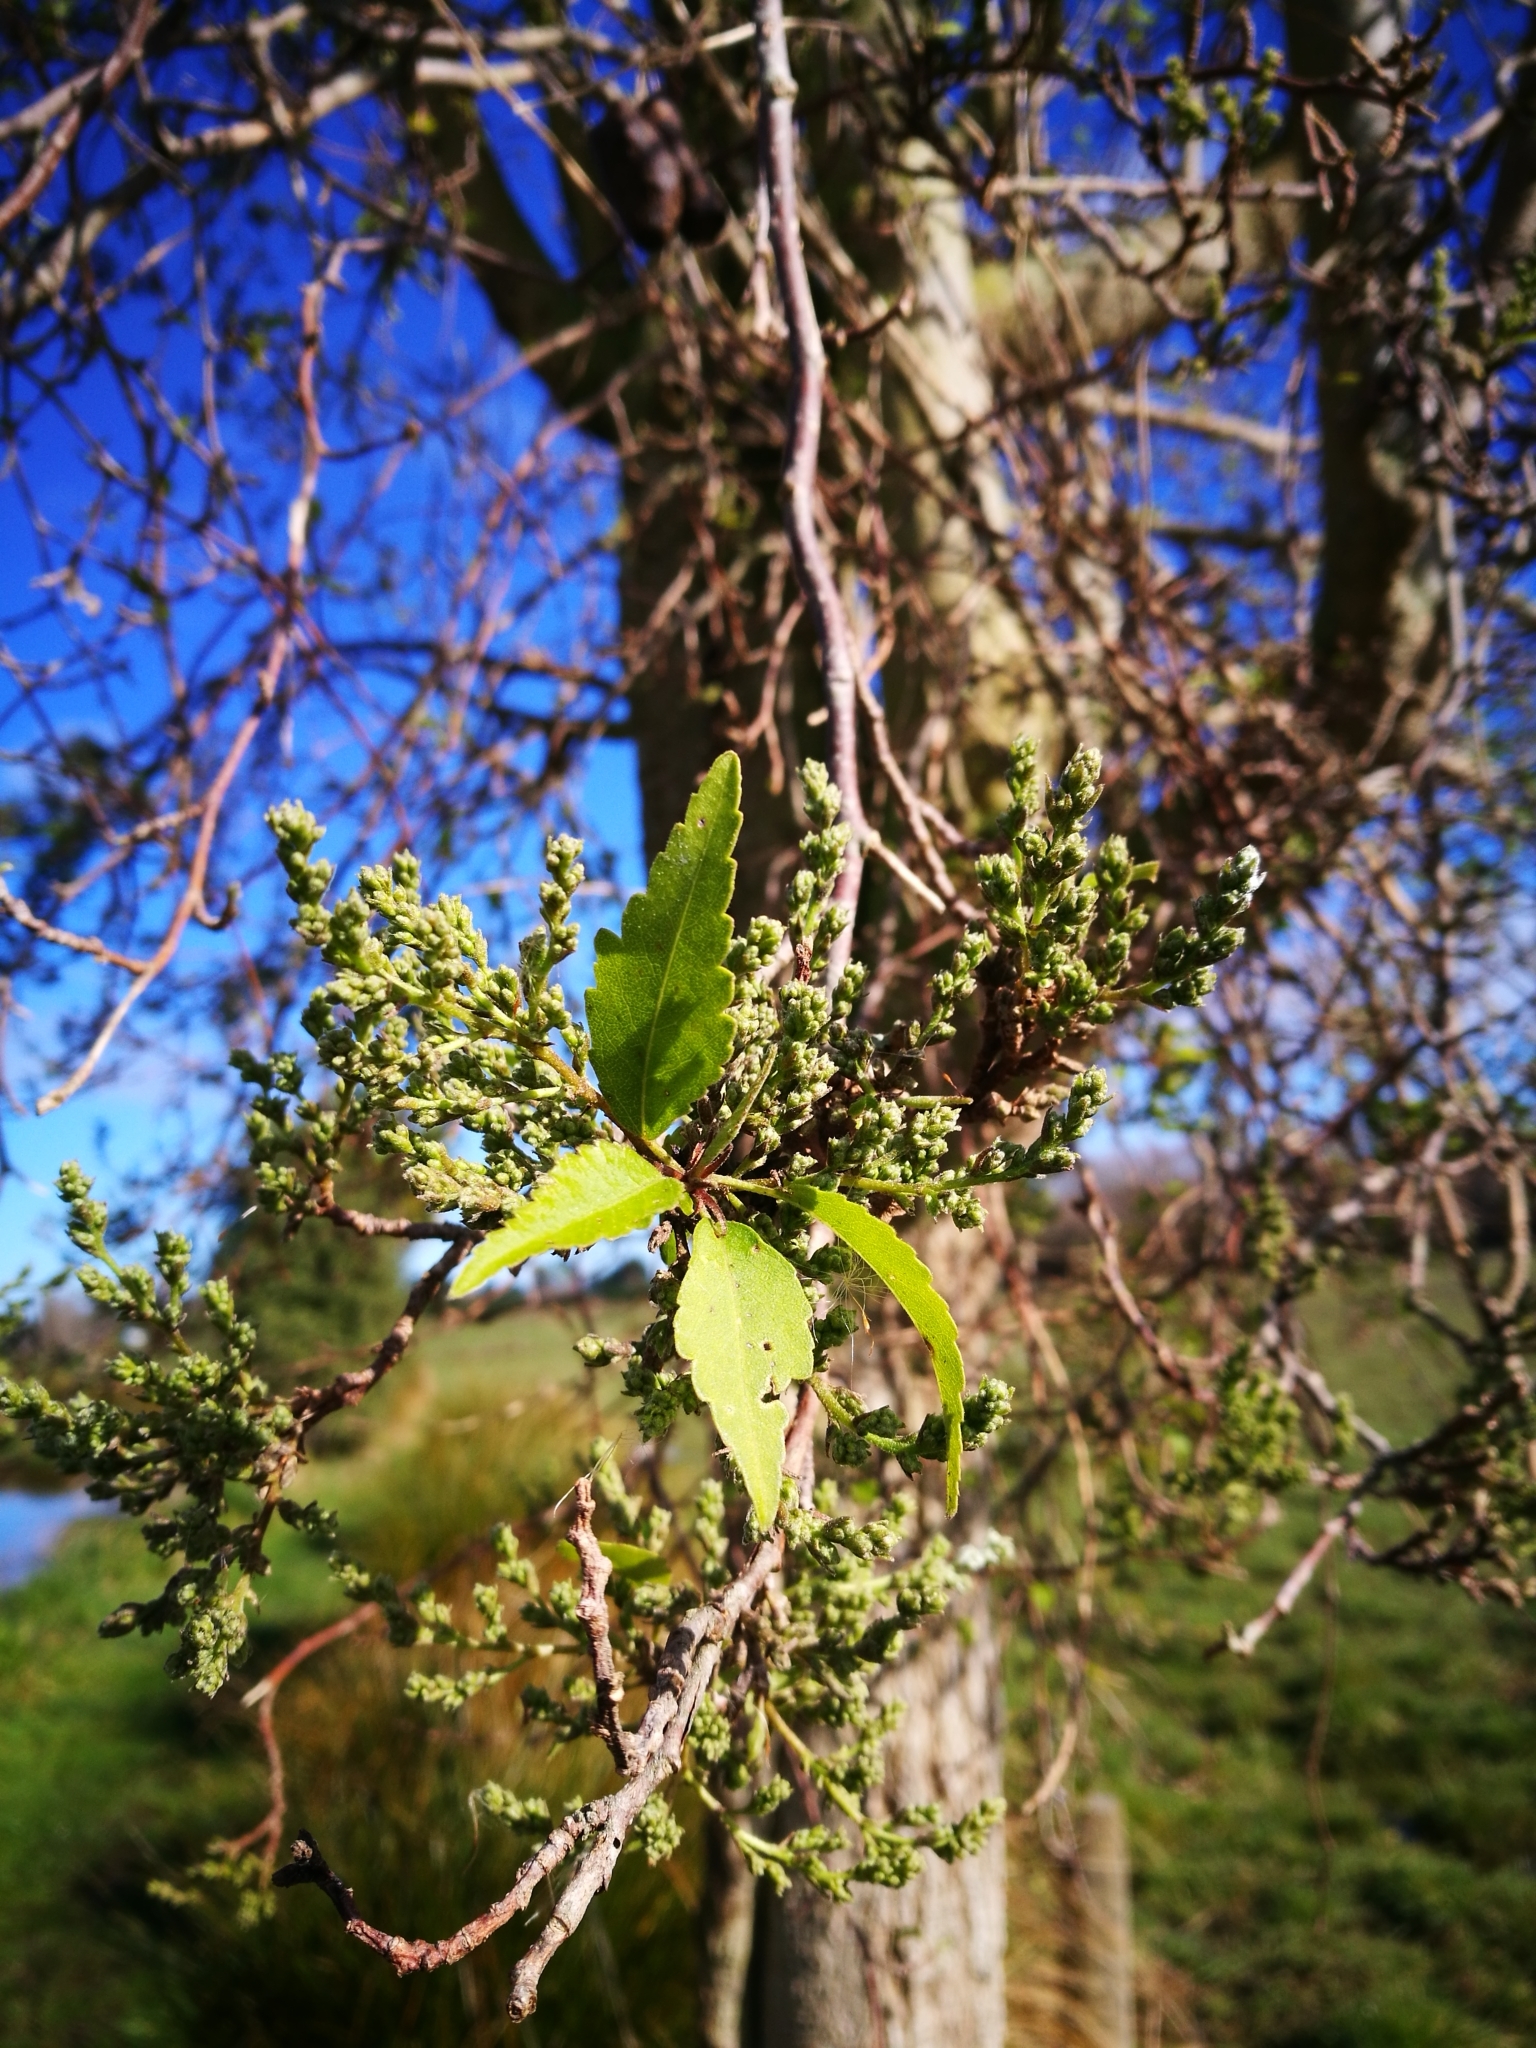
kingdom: Plantae
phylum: Tracheophyta
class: Magnoliopsida
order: Malvales
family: Malvaceae
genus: Plagianthus
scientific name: Plagianthus regius
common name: Manatu
